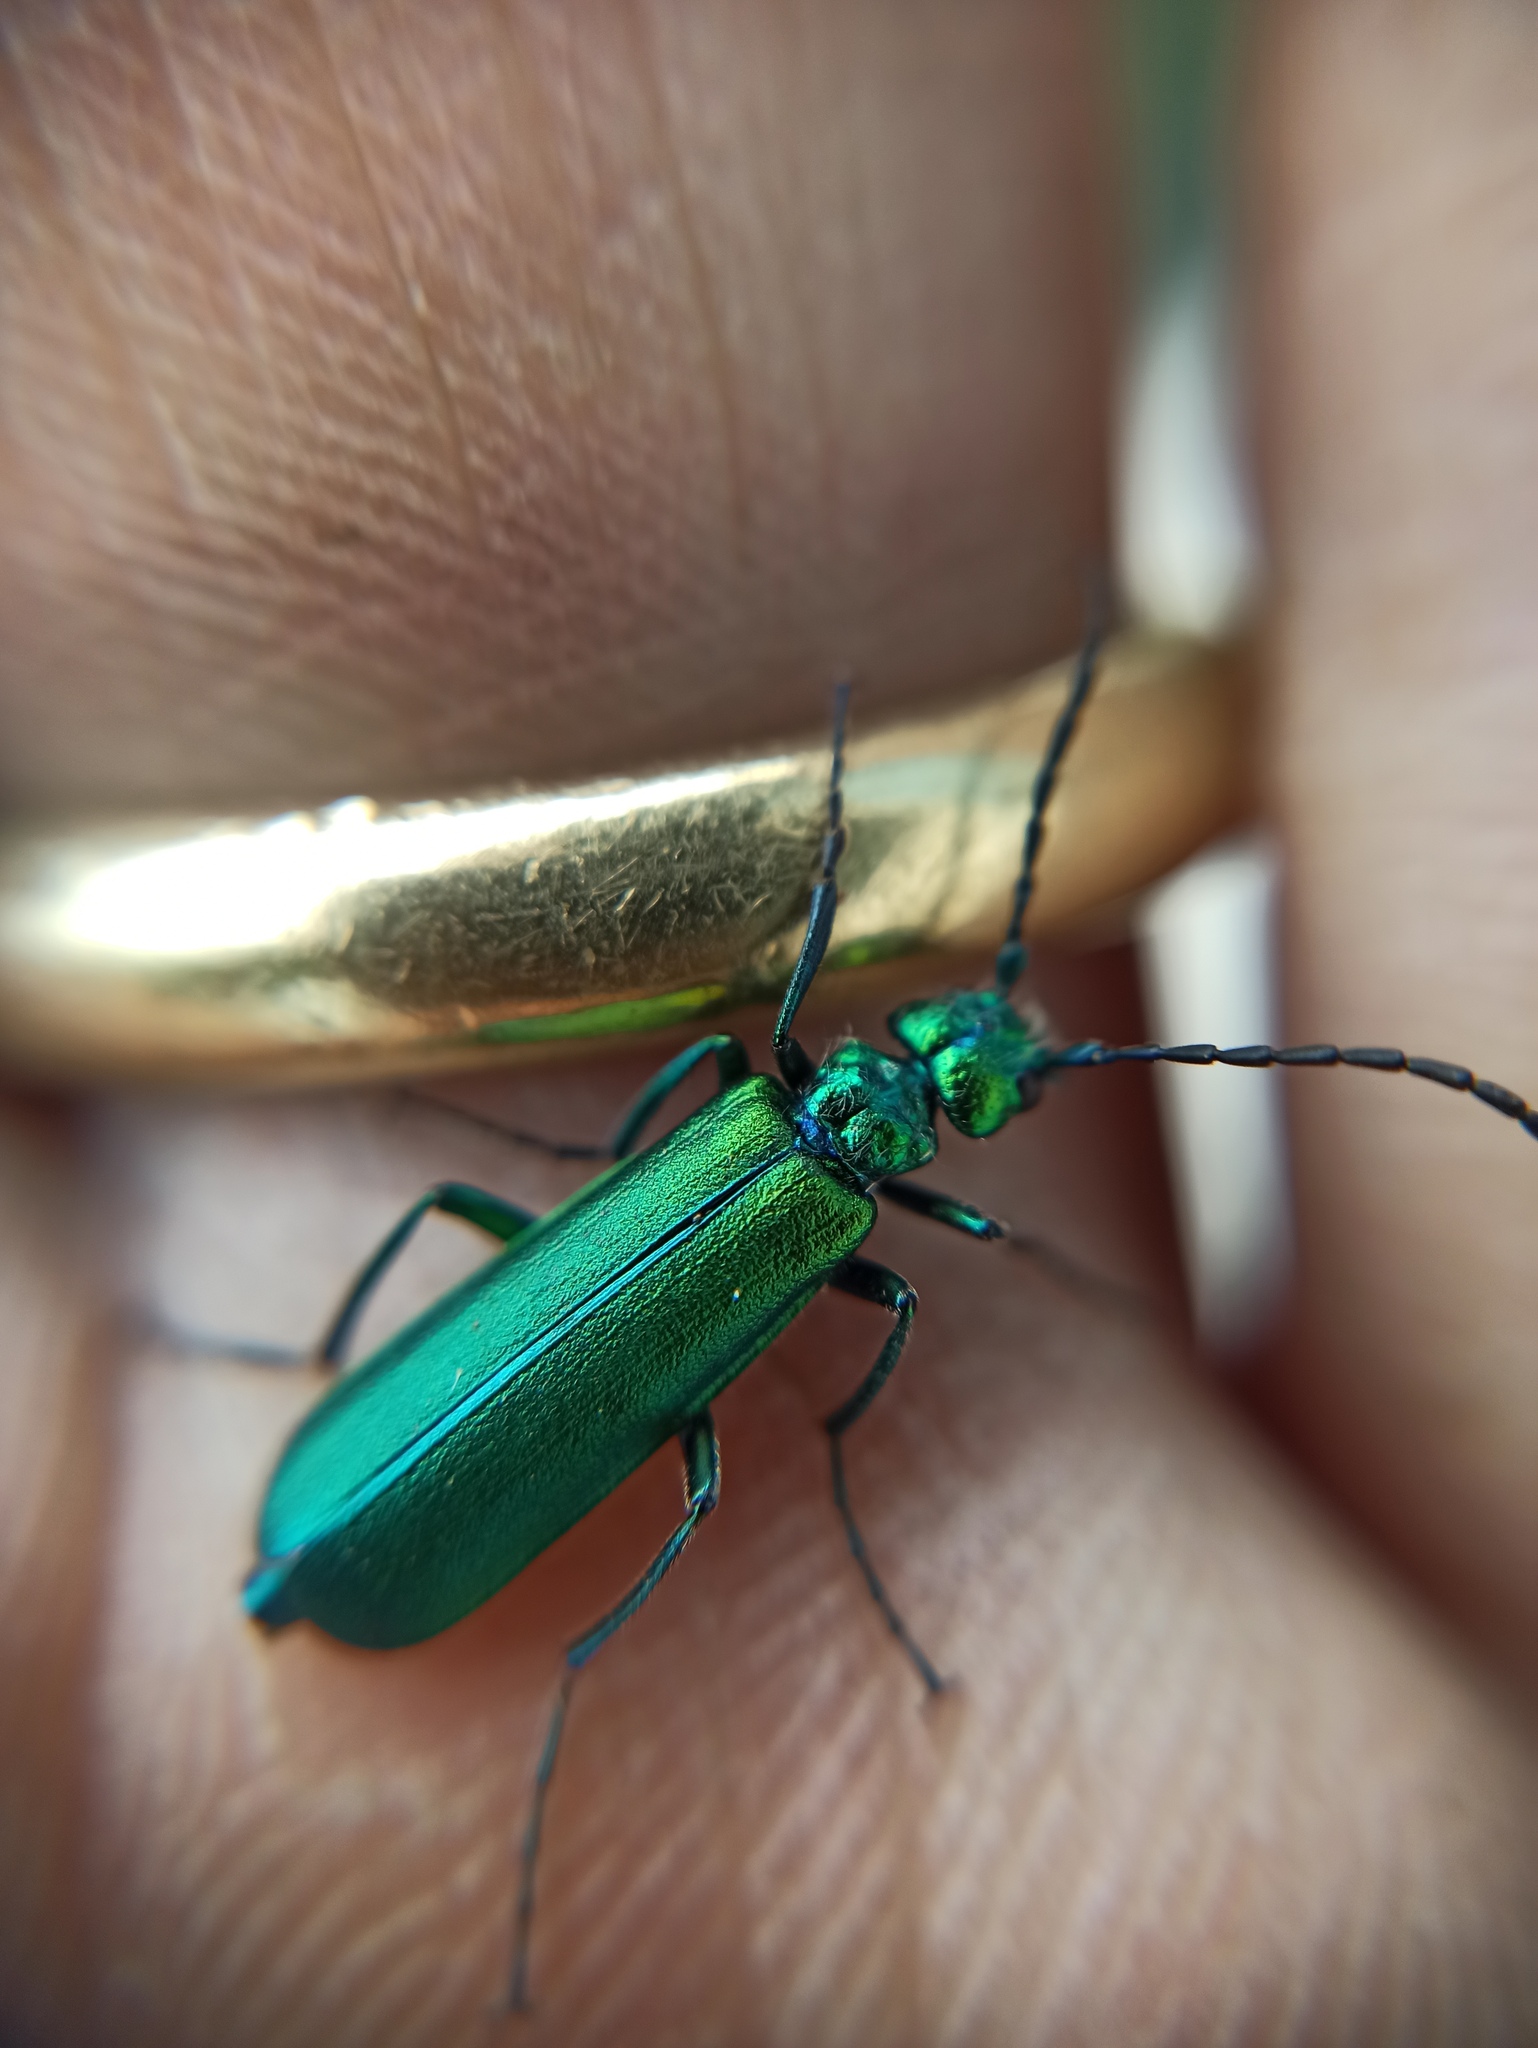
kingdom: Animalia
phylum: Arthropoda
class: Insecta
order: Coleoptera
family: Meloidae
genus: Lytta
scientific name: Lytta vesicatoria
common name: Spanish fly
